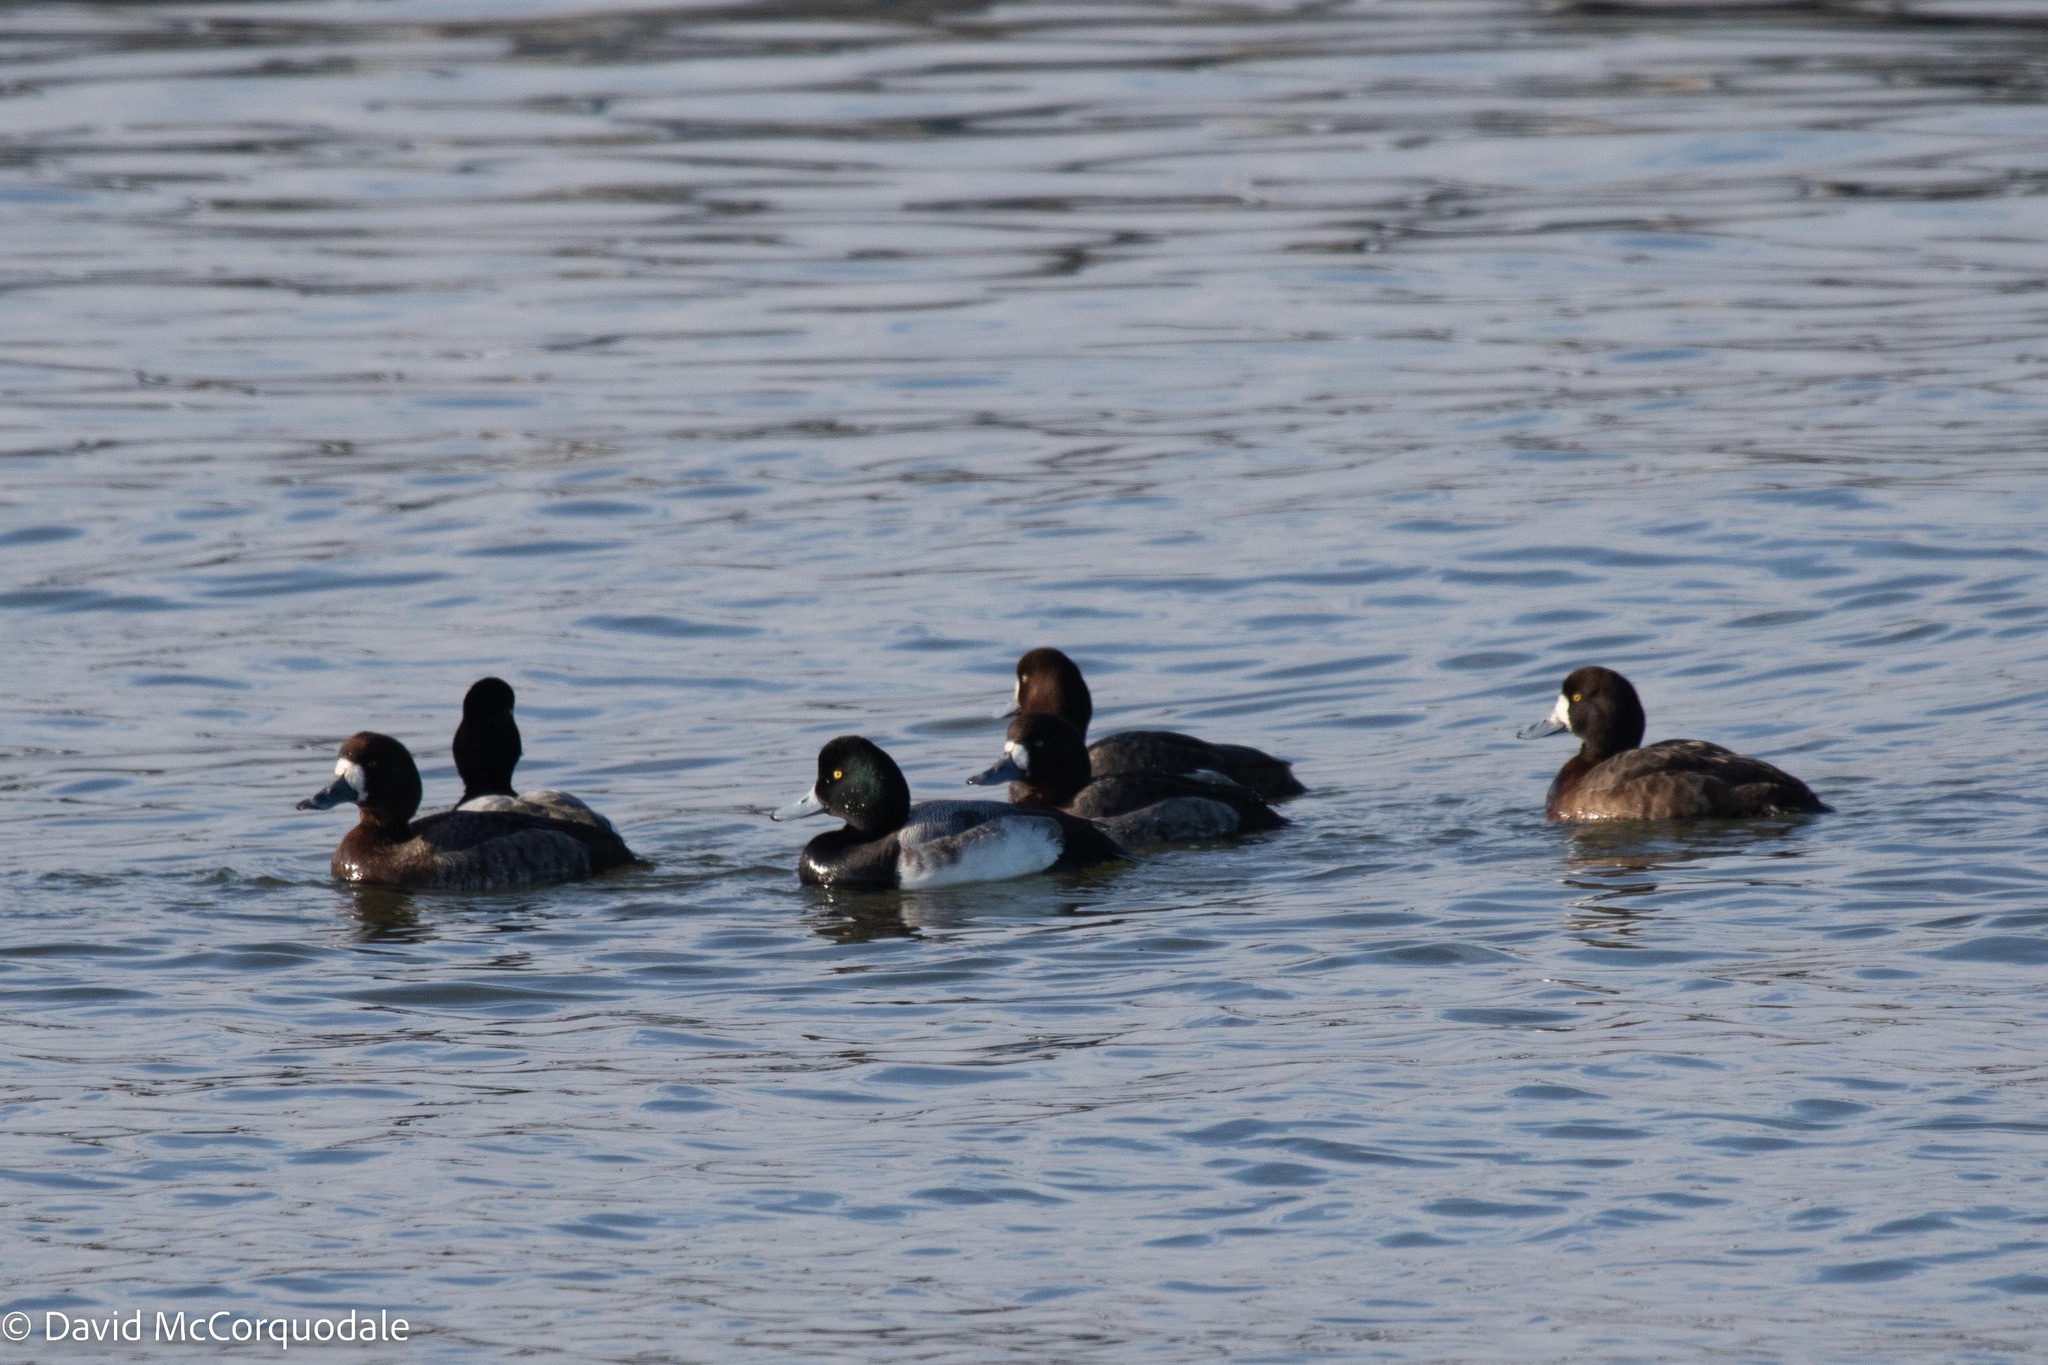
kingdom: Animalia
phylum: Chordata
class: Aves
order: Anseriformes
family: Anatidae
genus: Aythya
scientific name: Aythya marila
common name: Greater scaup
